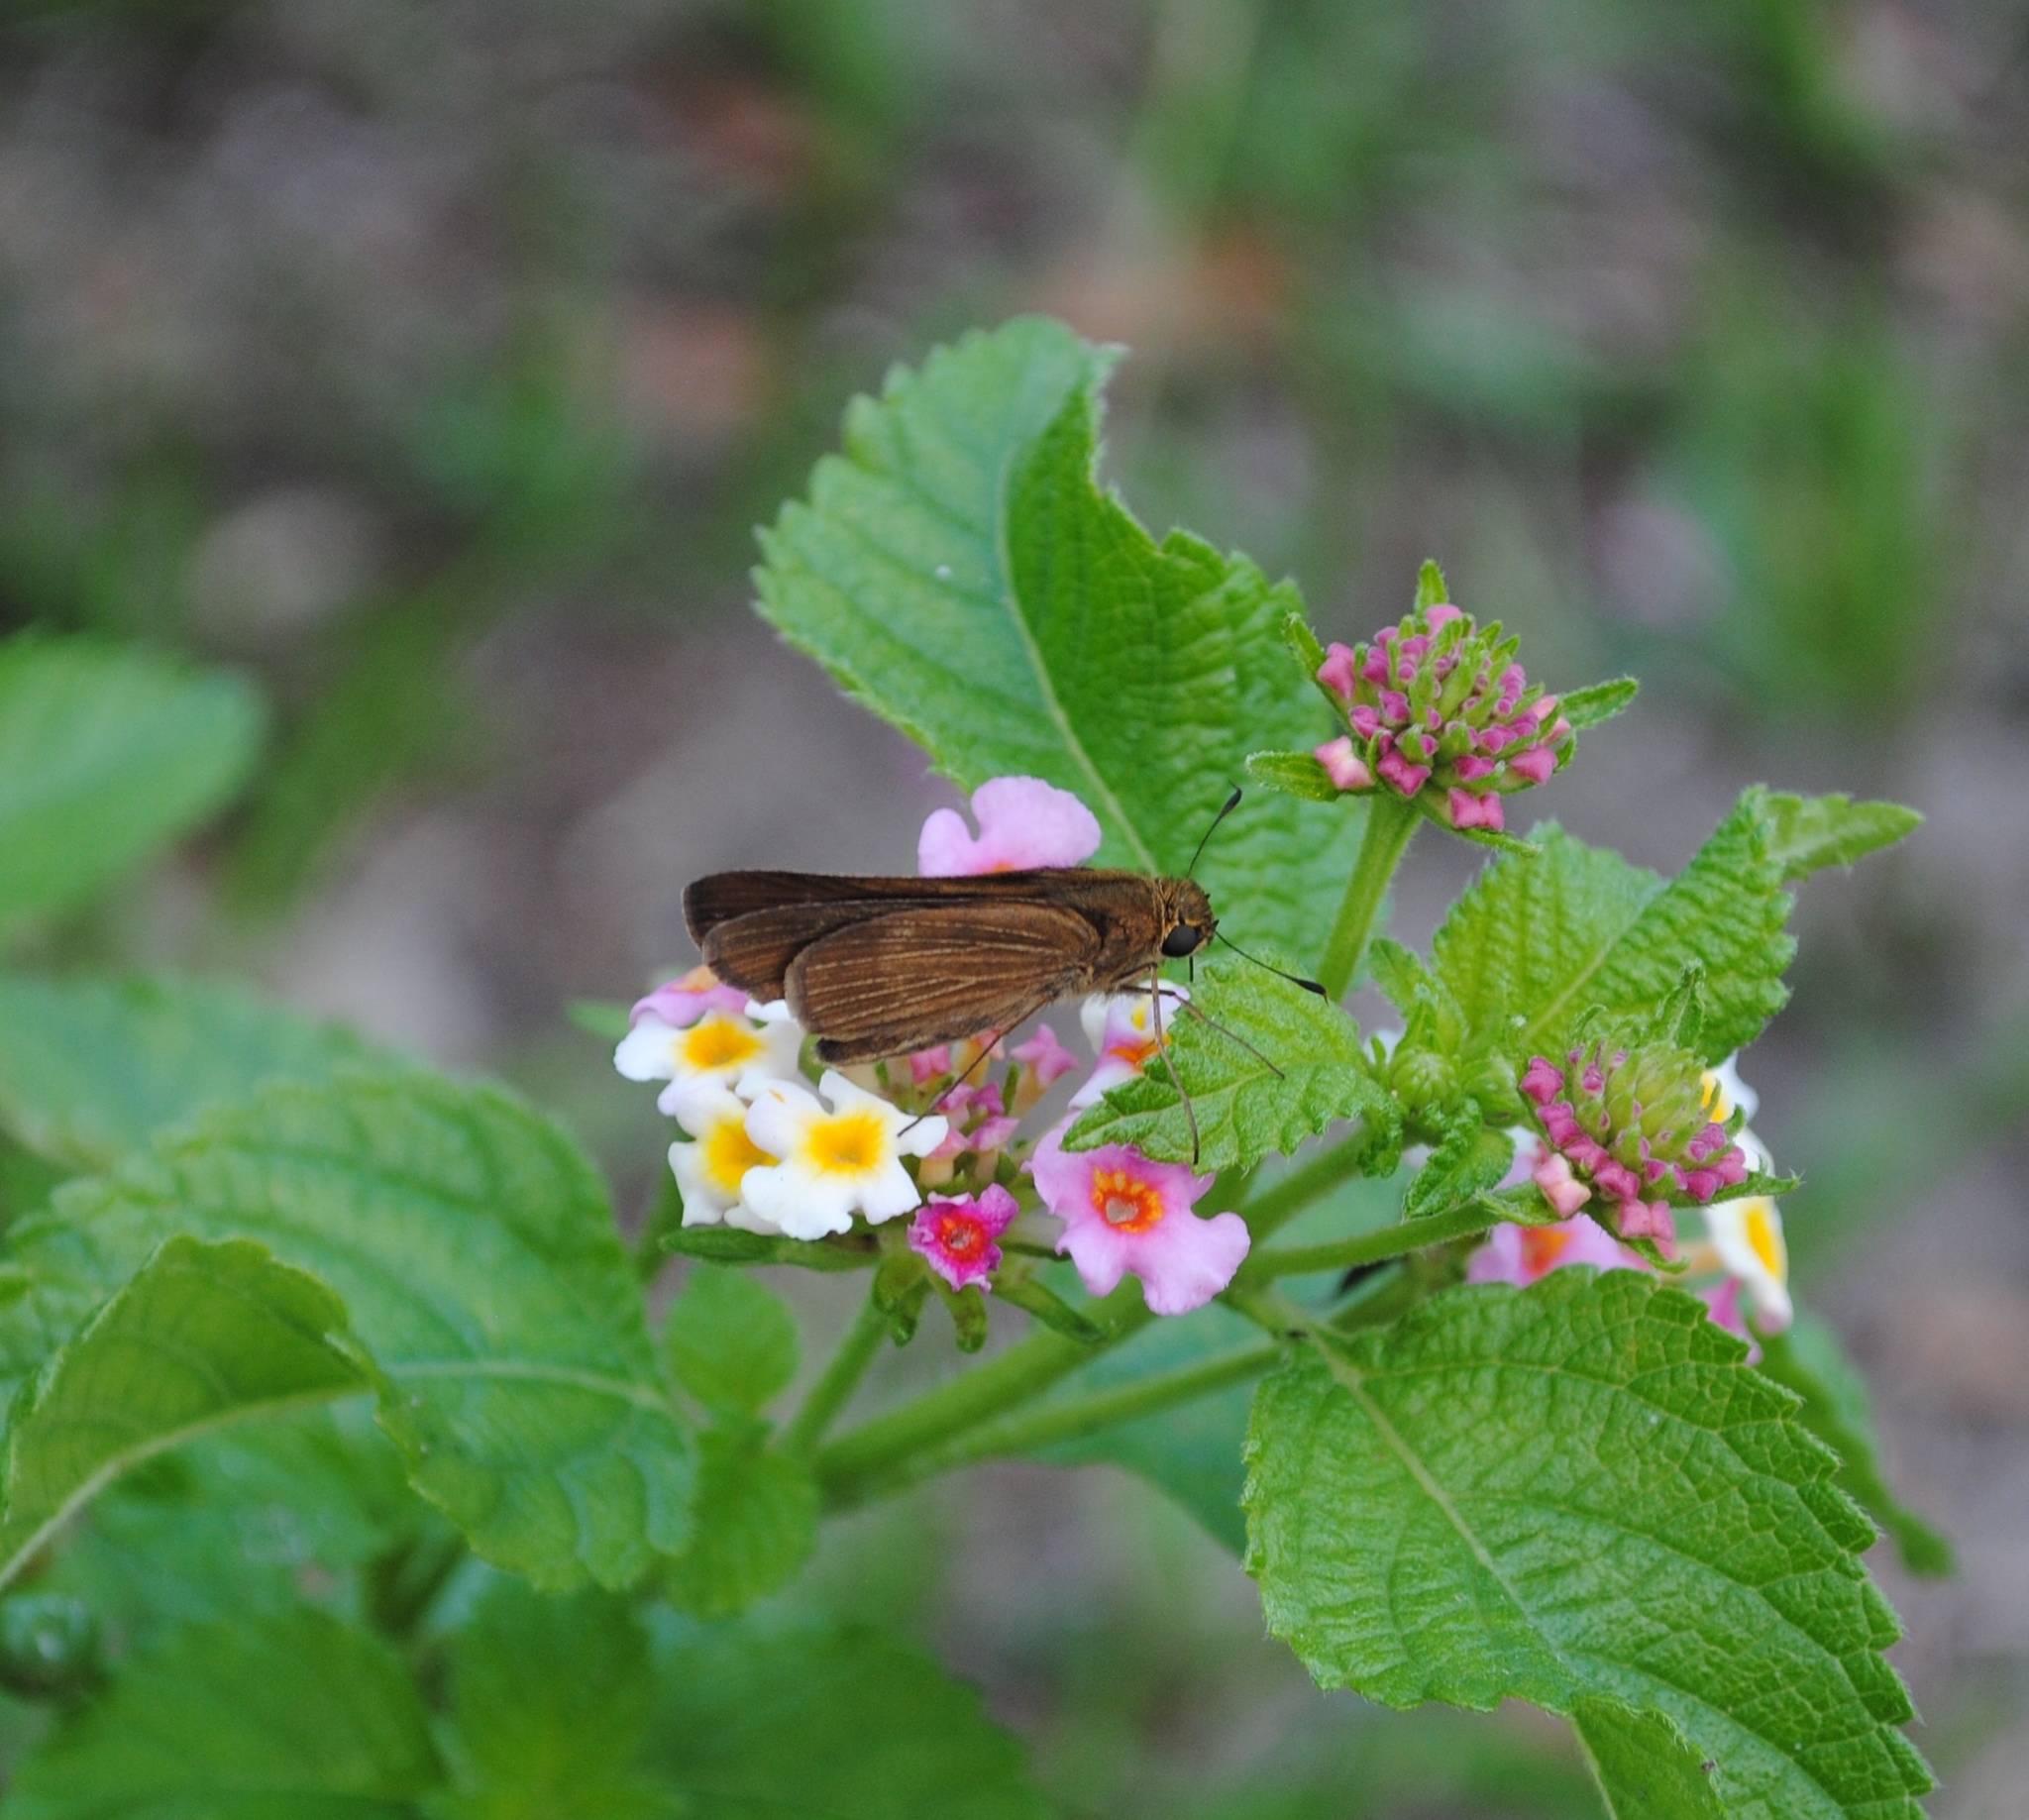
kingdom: Animalia
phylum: Arthropoda
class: Insecta
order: Lepidoptera
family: Hesperiidae
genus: Panoquina
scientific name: Panoquina ocola
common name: Ocola skipper
